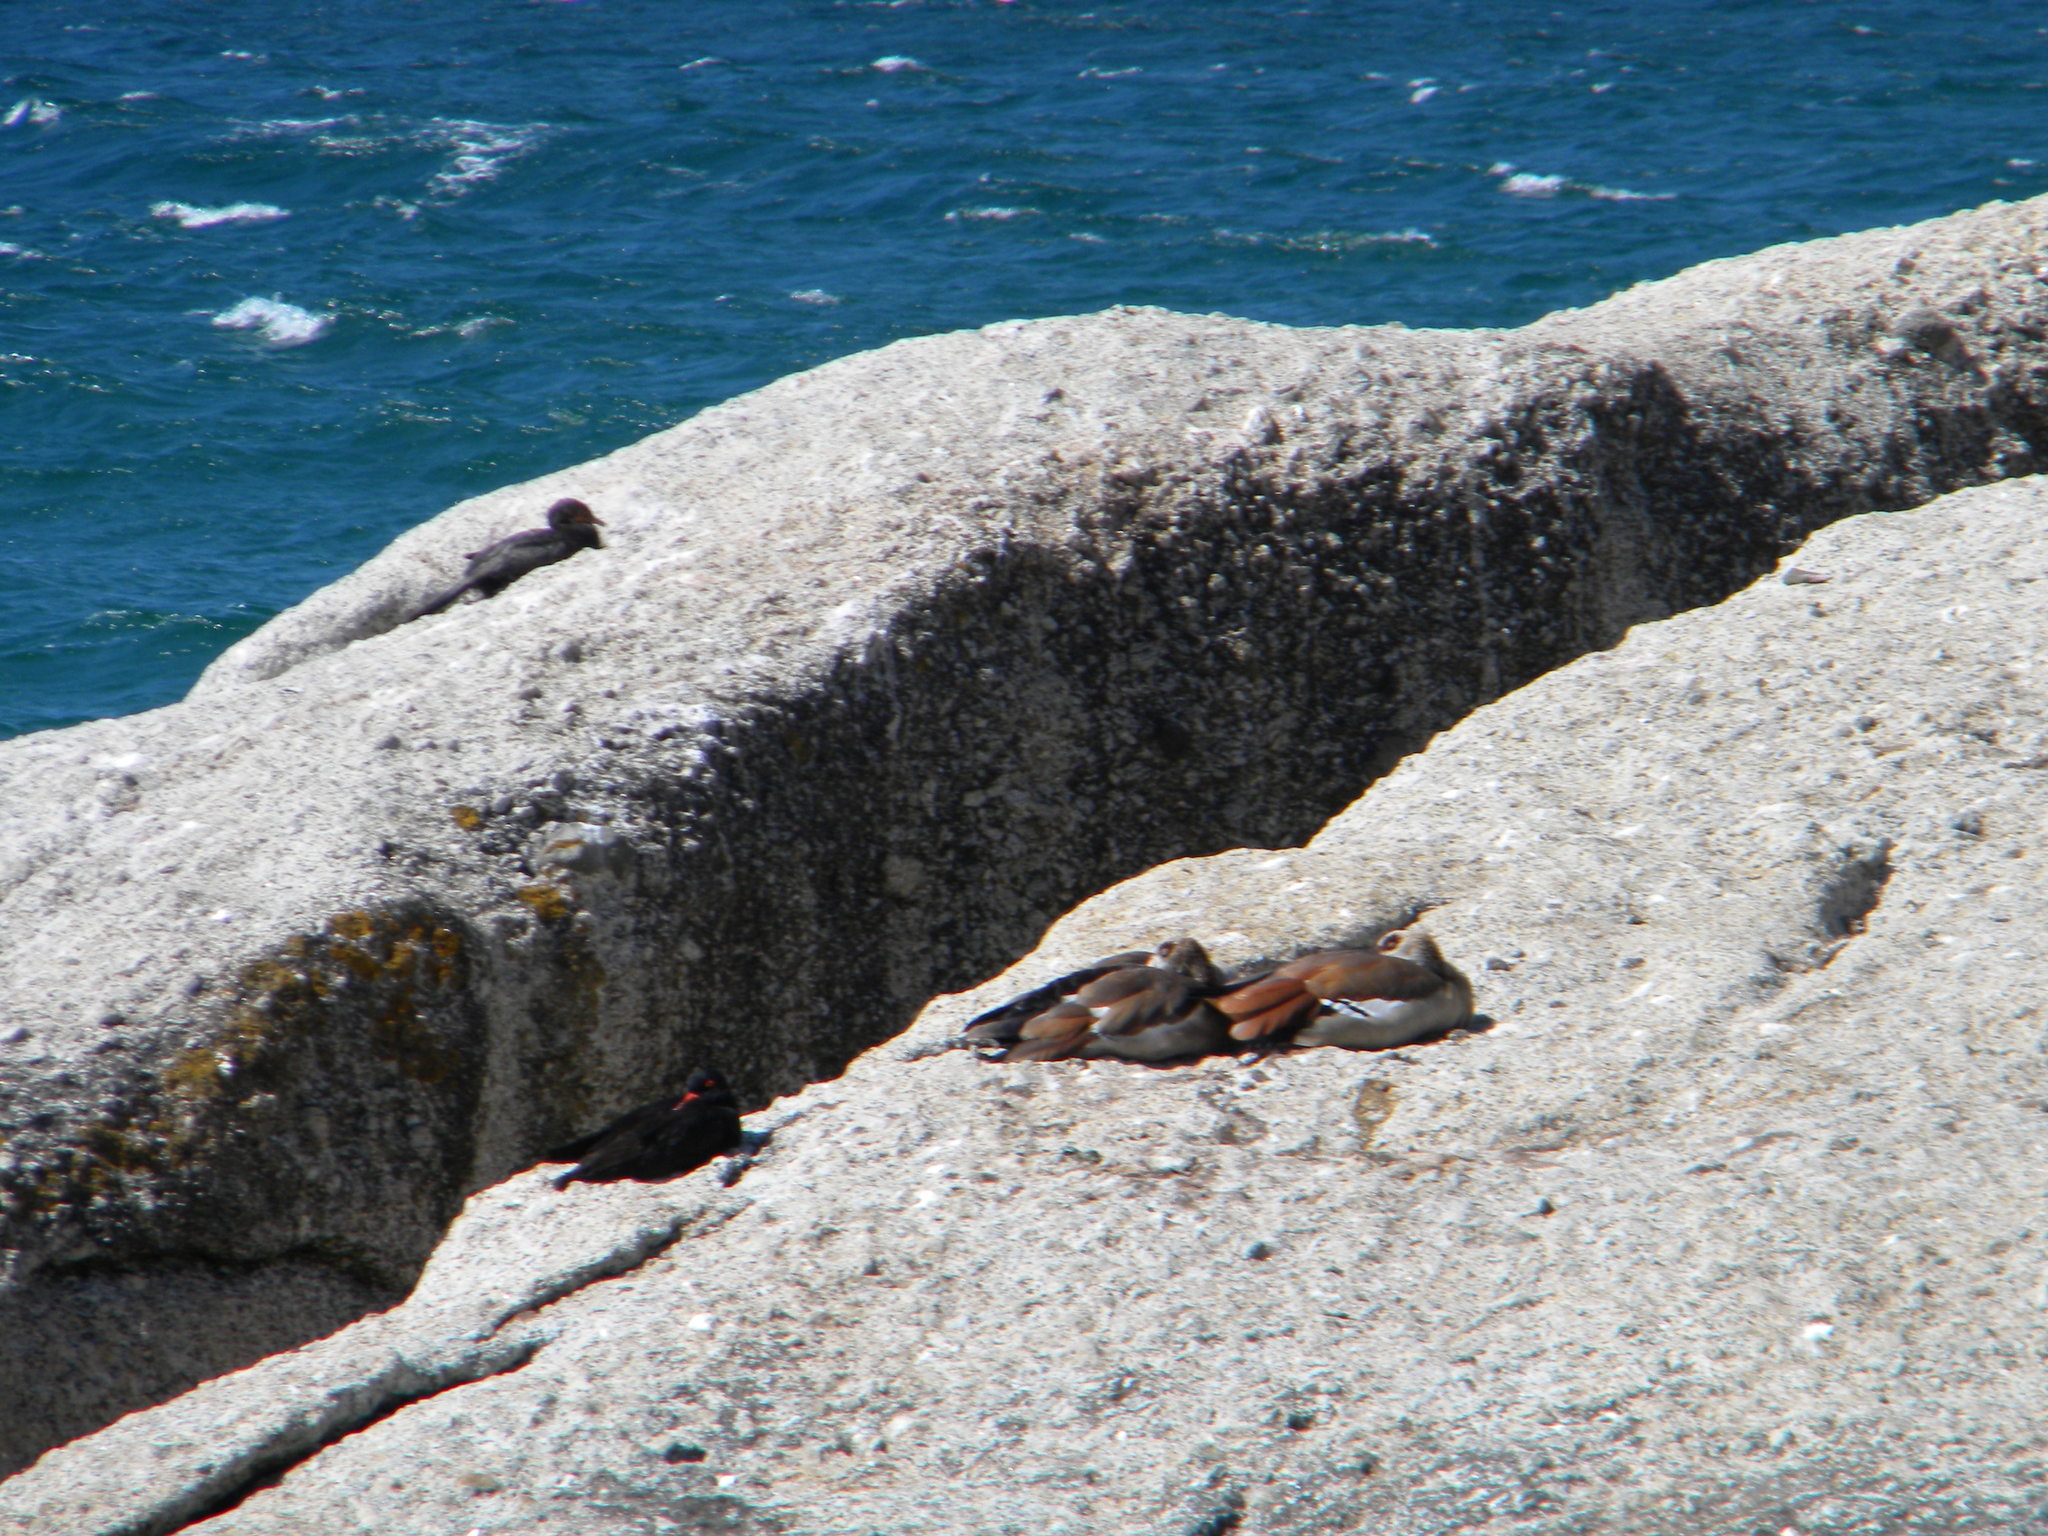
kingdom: Animalia
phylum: Chordata
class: Aves
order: Anseriformes
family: Anatidae
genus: Alopochen
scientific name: Alopochen aegyptiaca
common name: Egyptian goose
